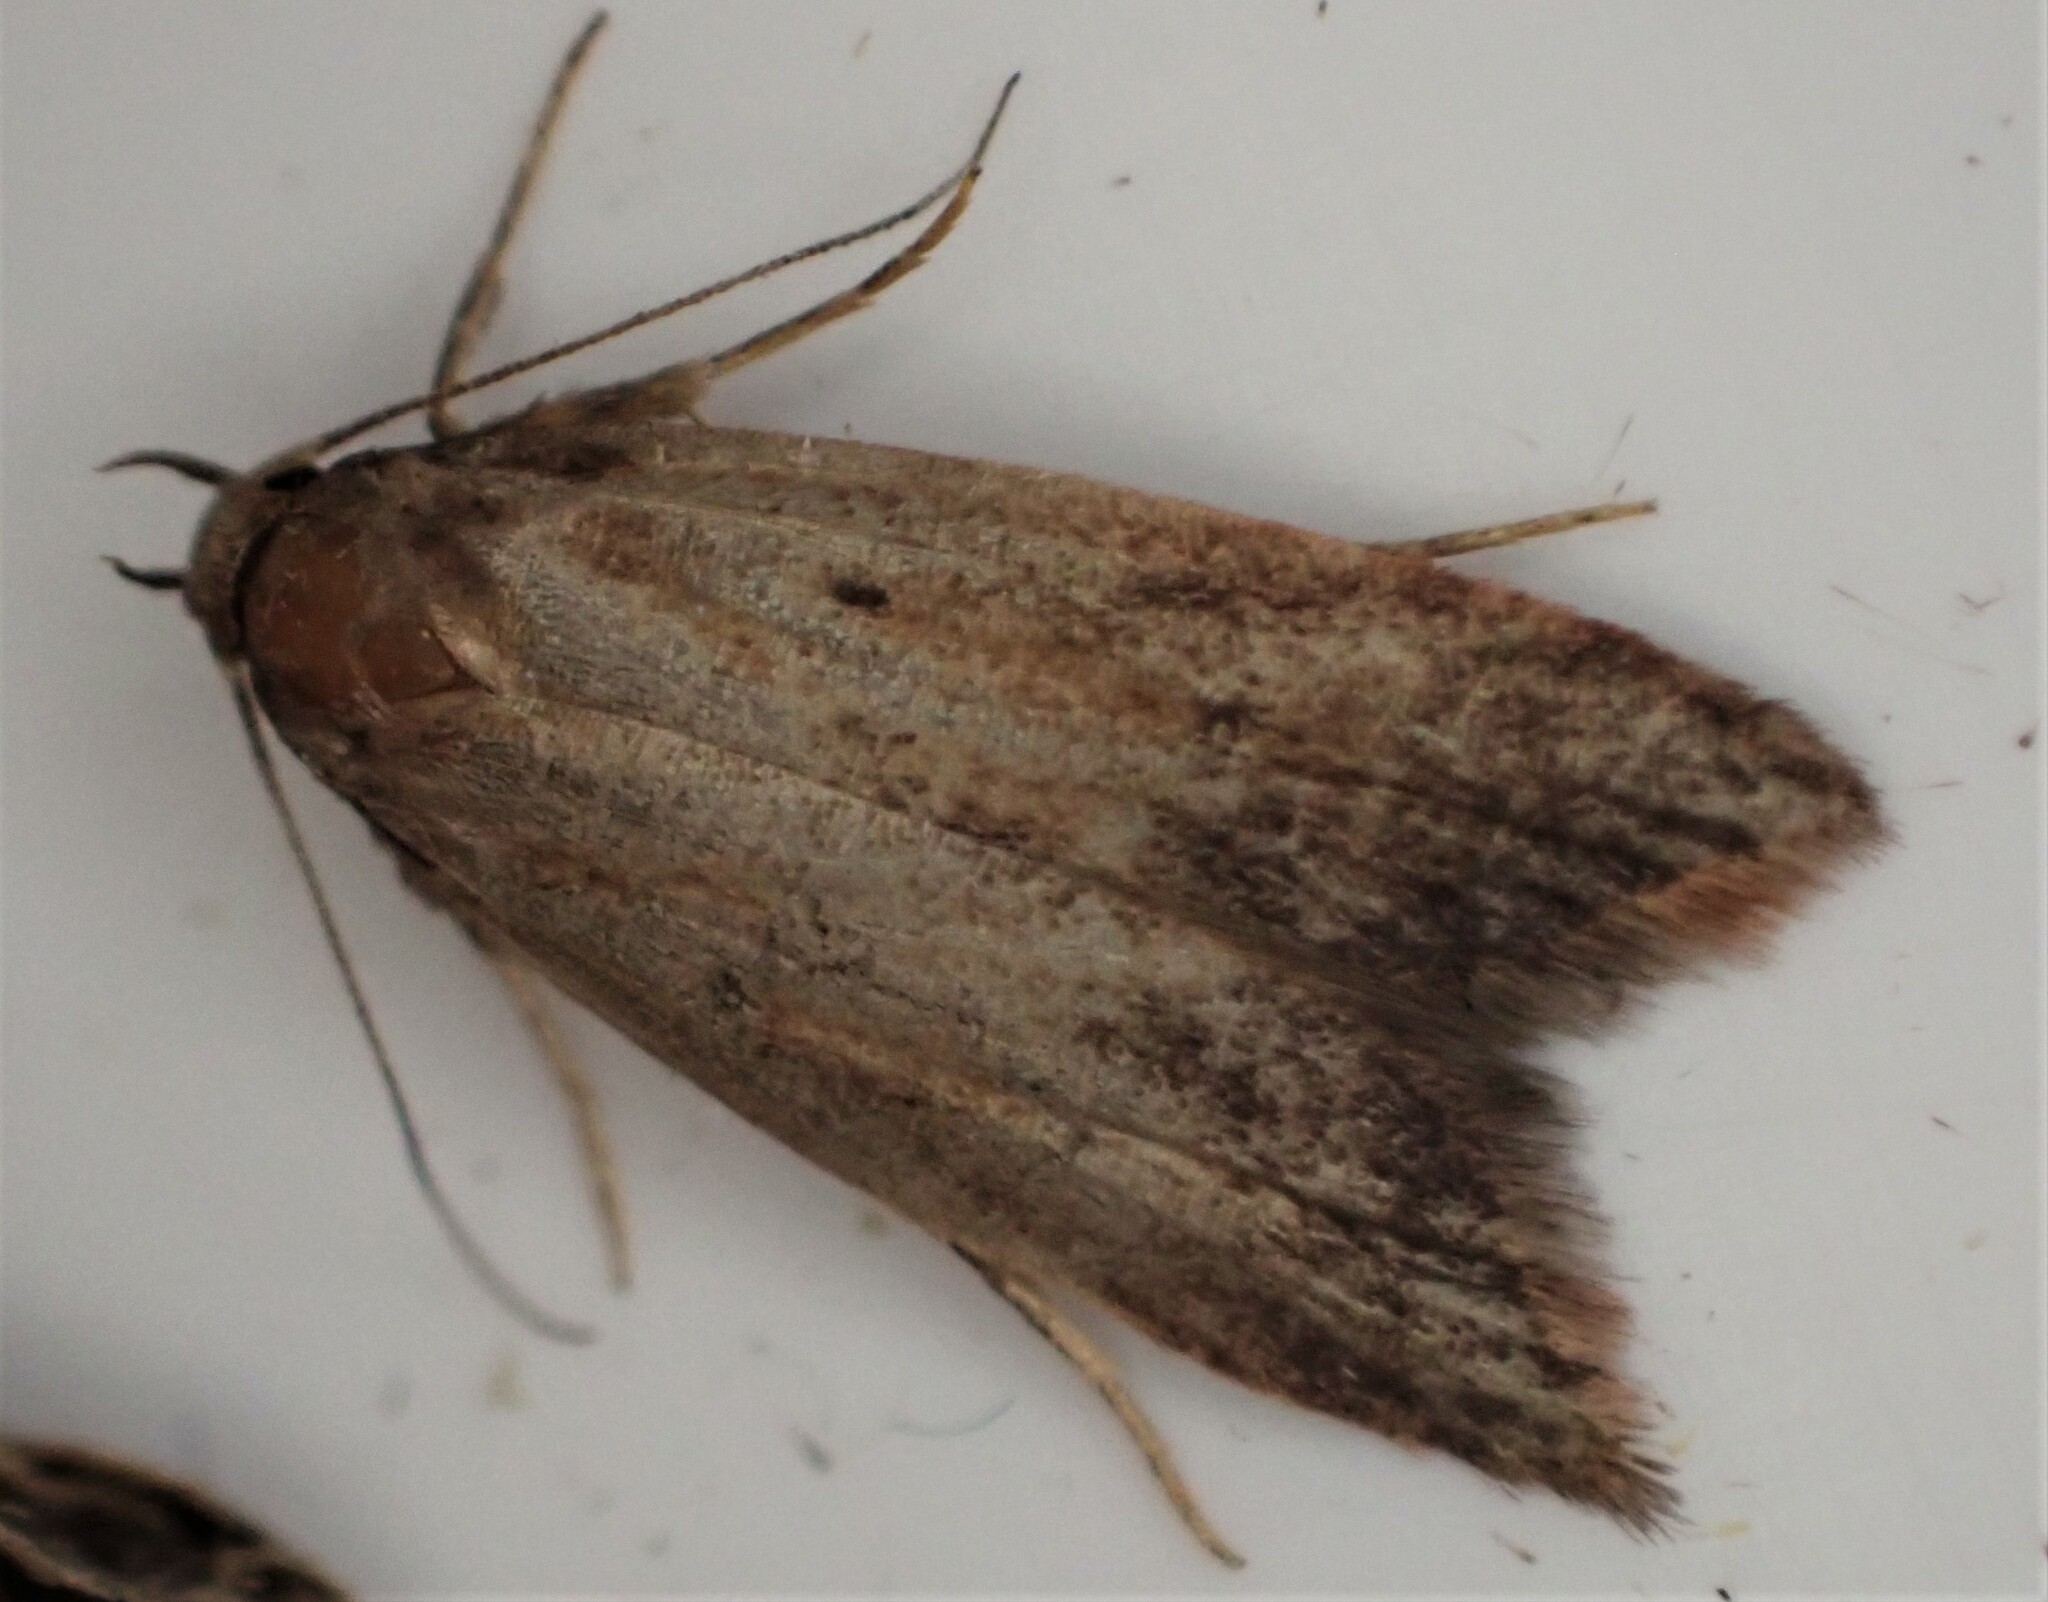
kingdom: Animalia
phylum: Arthropoda
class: Insecta
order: Lepidoptera
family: Oecophoridae
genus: Tachystola
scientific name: Tachystola acroxantha
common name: Ruddy streak
